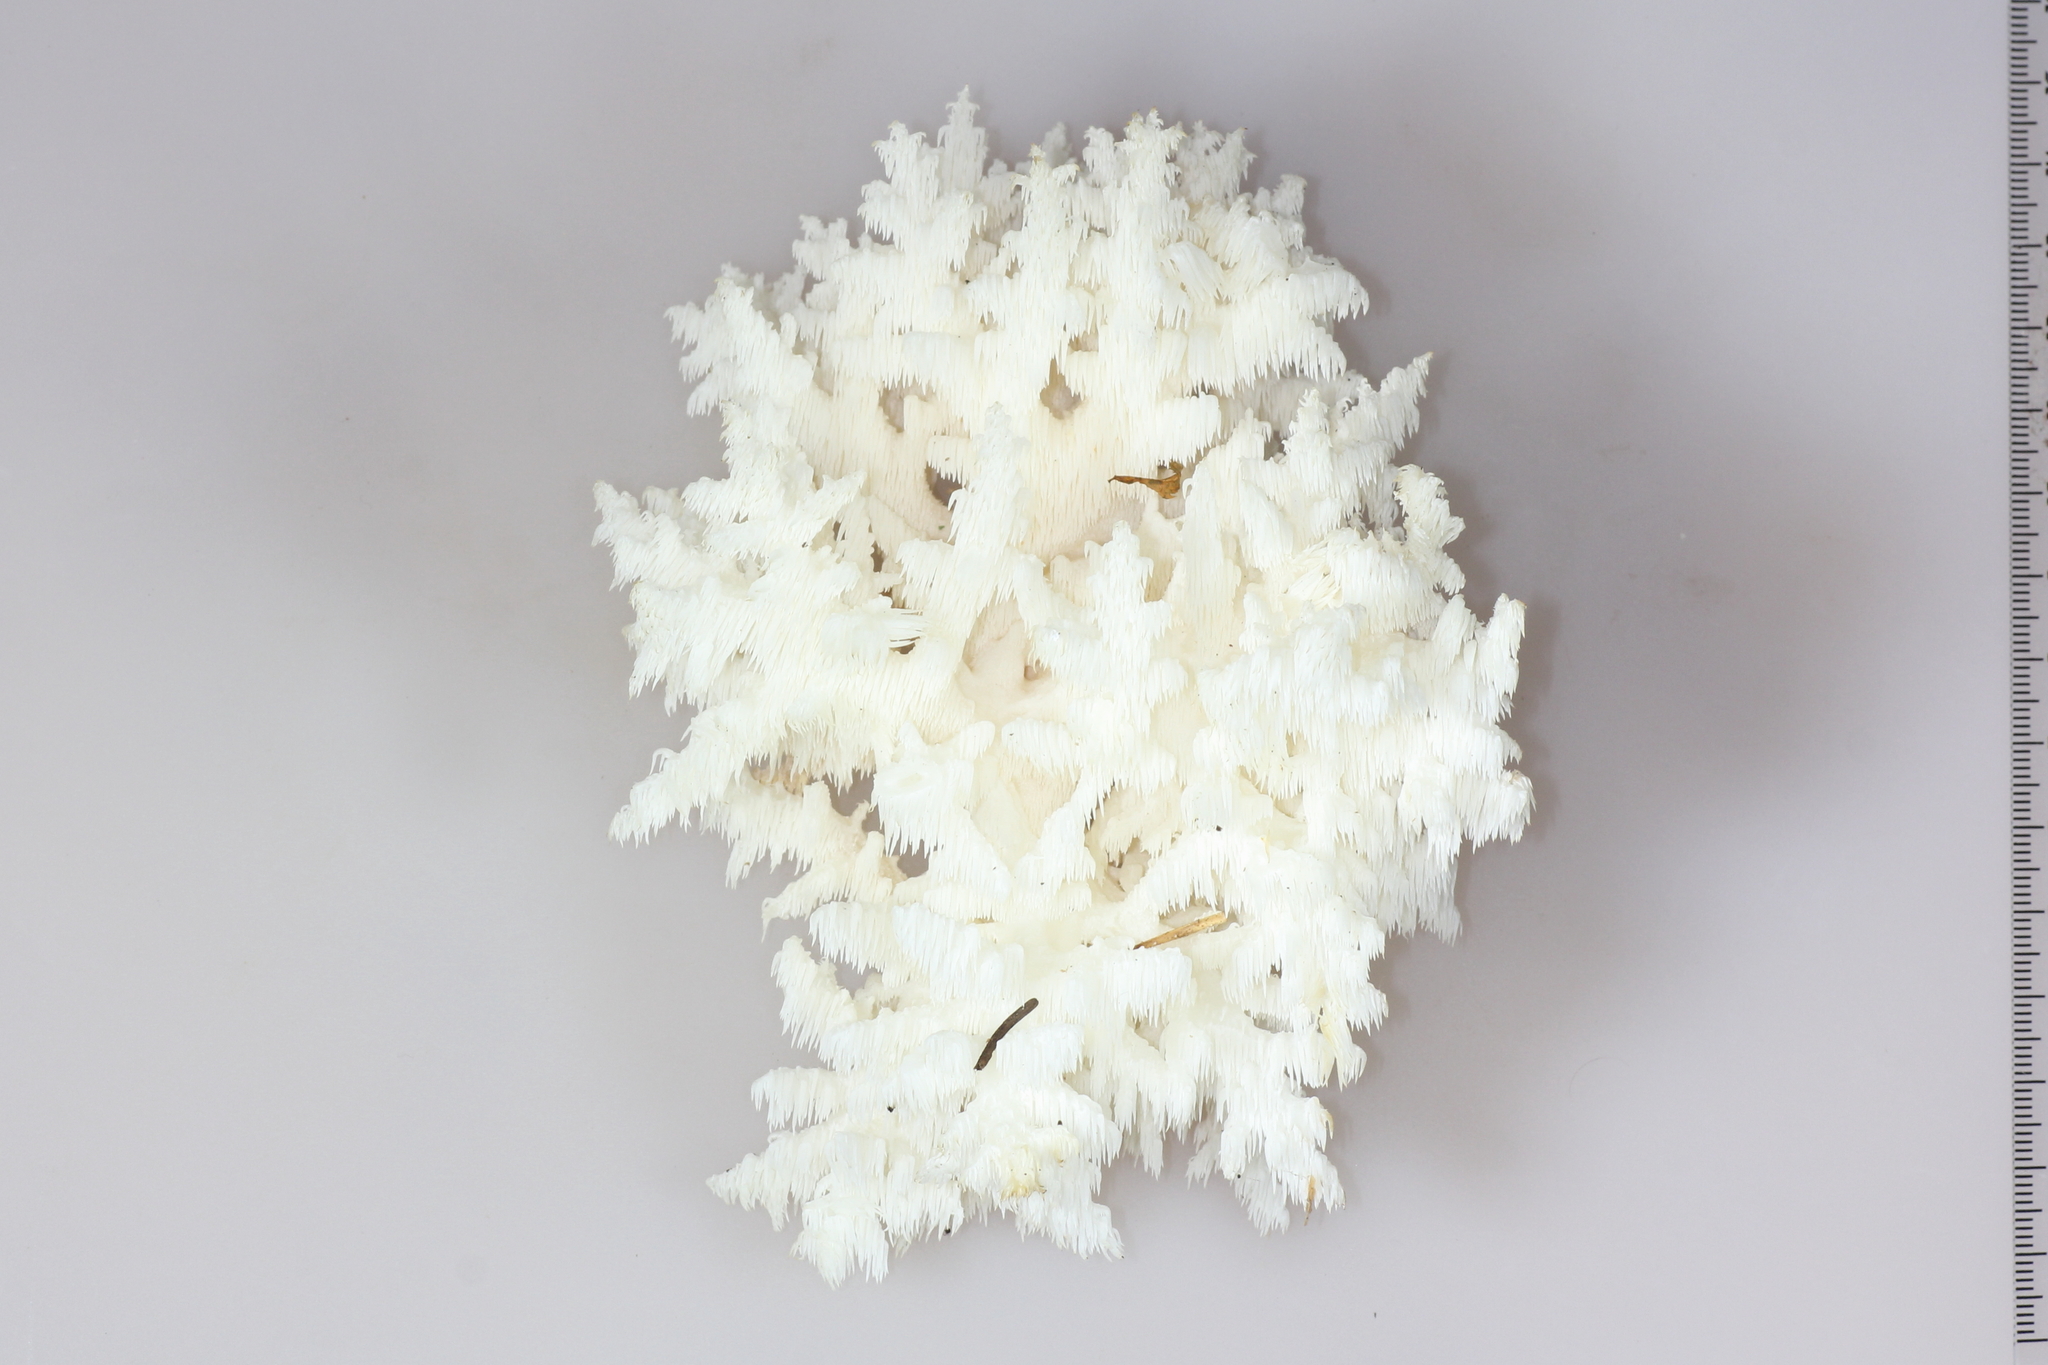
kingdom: Fungi
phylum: Basidiomycota
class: Agaricomycetes
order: Russulales
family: Hericiaceae
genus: Hericium
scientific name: Hericium coralloides
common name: Coral tooth
